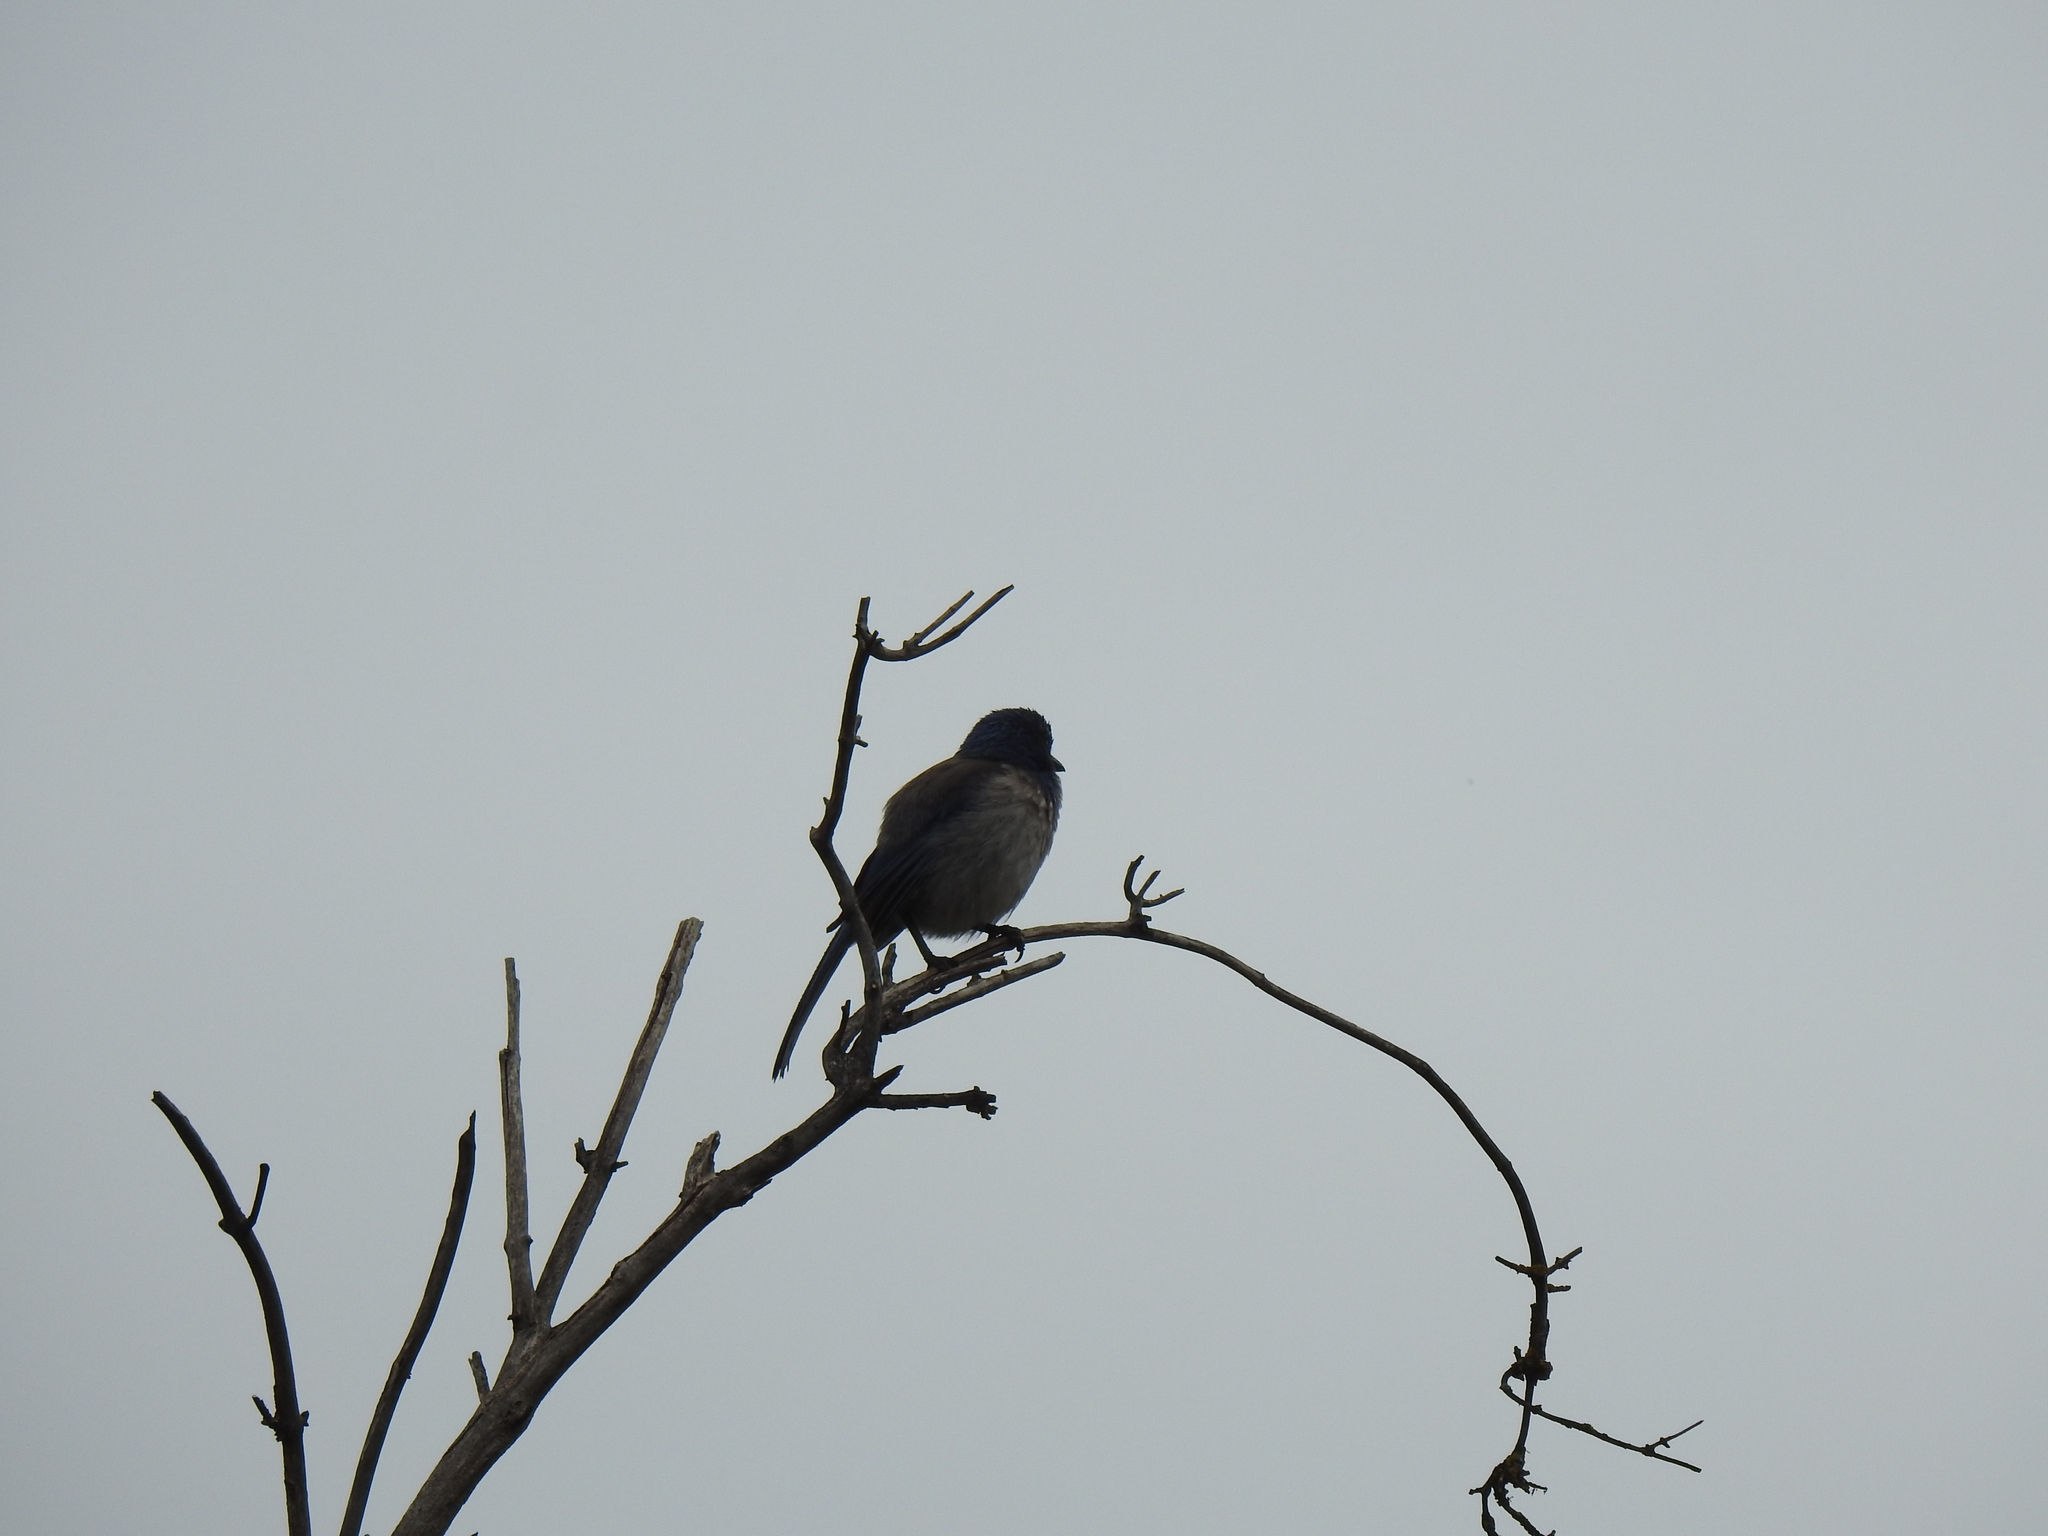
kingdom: Animalia
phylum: Chordata
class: Aves
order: Passeriformes
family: Corvidae
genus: Aphelocoma
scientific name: Aphelocoma californica
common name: California scrub-jay
